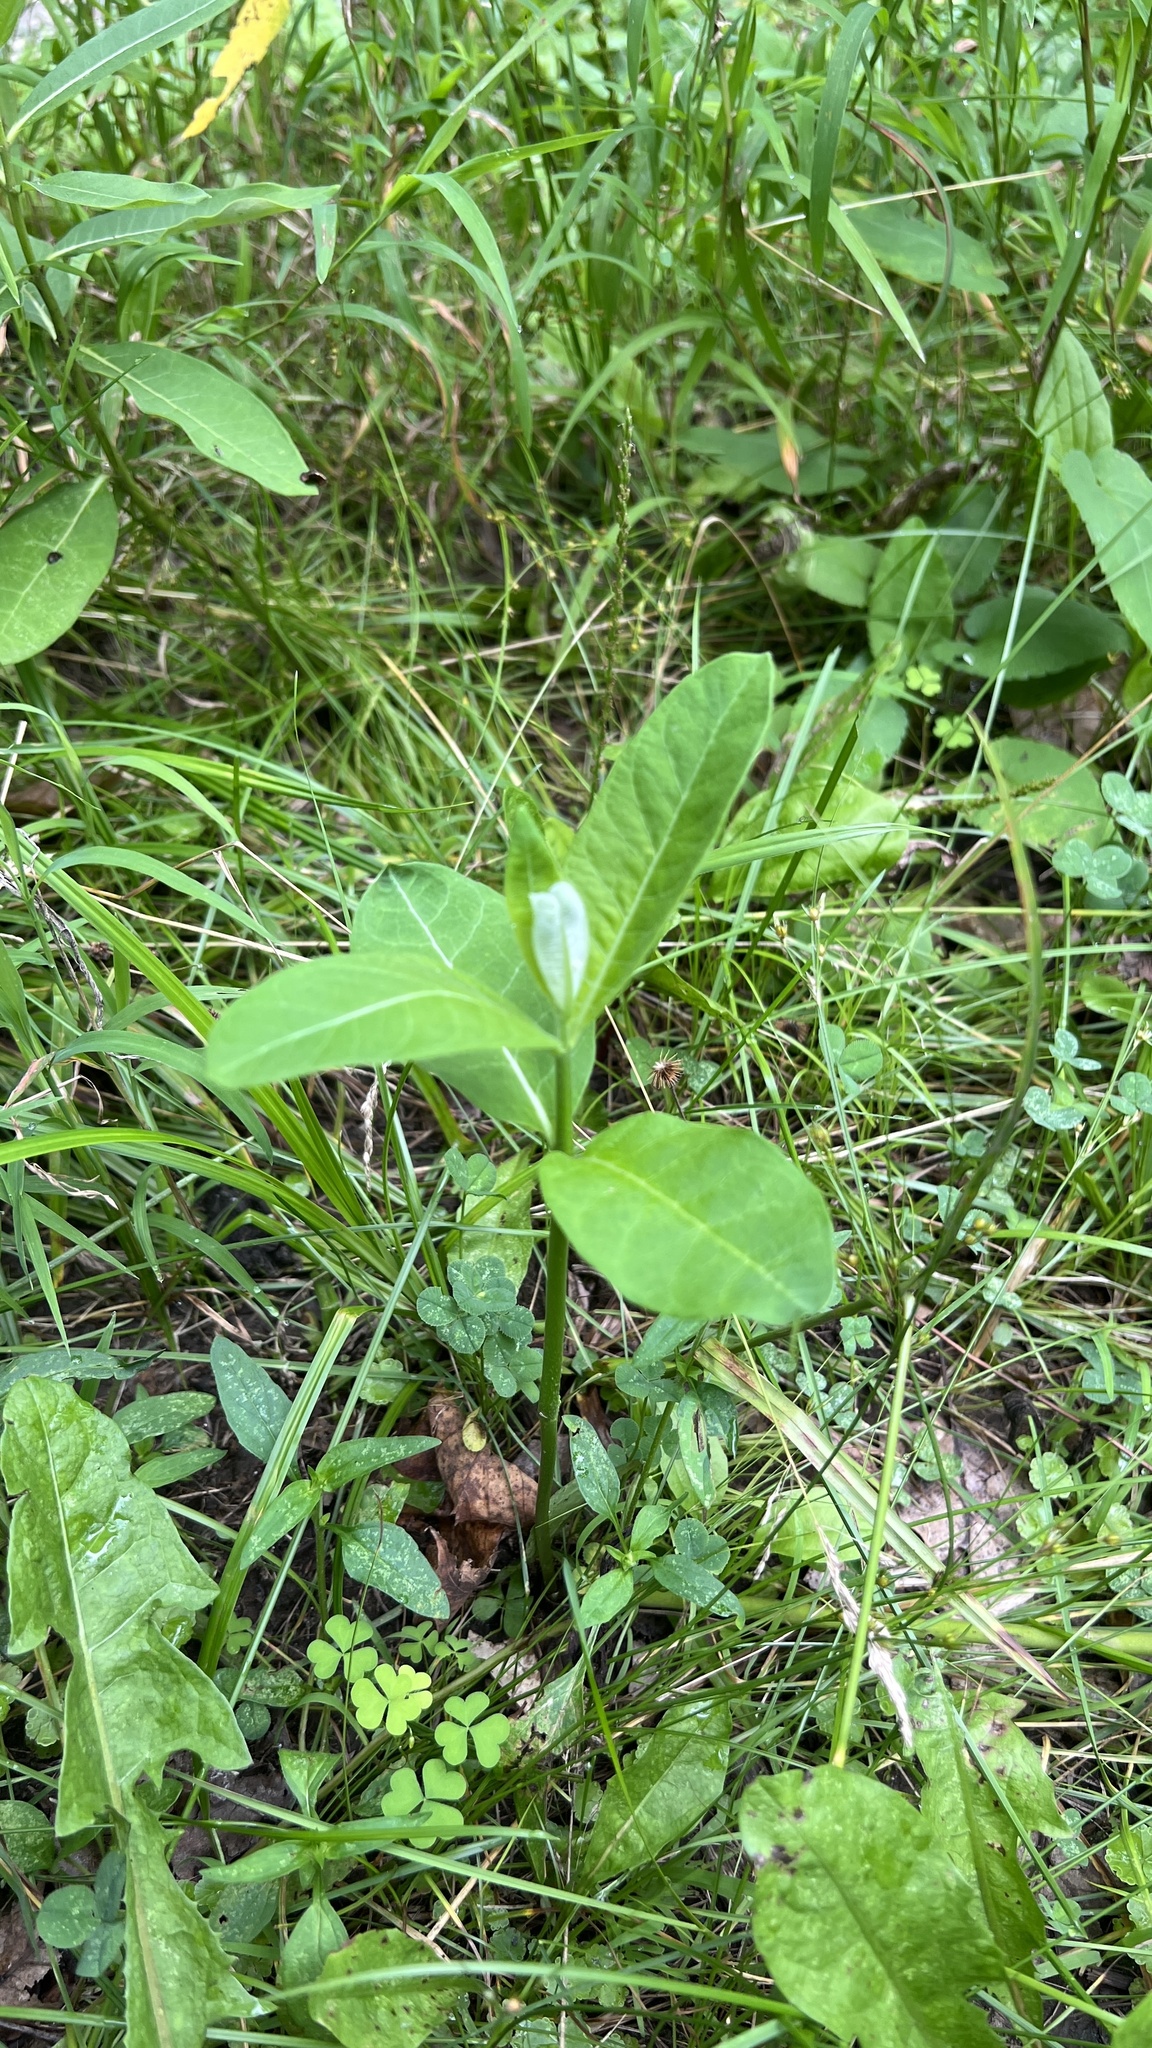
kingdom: Plantae
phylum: Tracheophyta
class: Magnoliopsida
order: Gentianales
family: Apocynaceae
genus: Asclepias
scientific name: Asclepias syriaca
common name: Common milkweed
